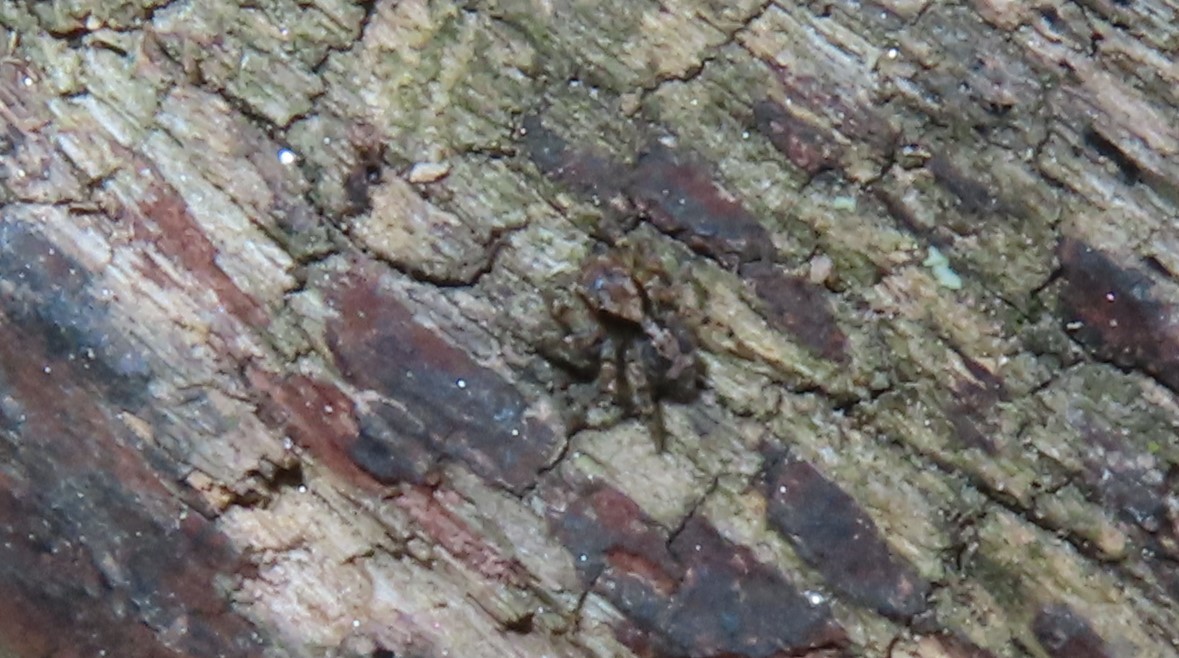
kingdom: Animalia
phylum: Arthropoda
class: Arachnida
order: Araneae
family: Salticidae
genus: Naphrys
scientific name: Naphrys pulex
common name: Flea jumping spider
